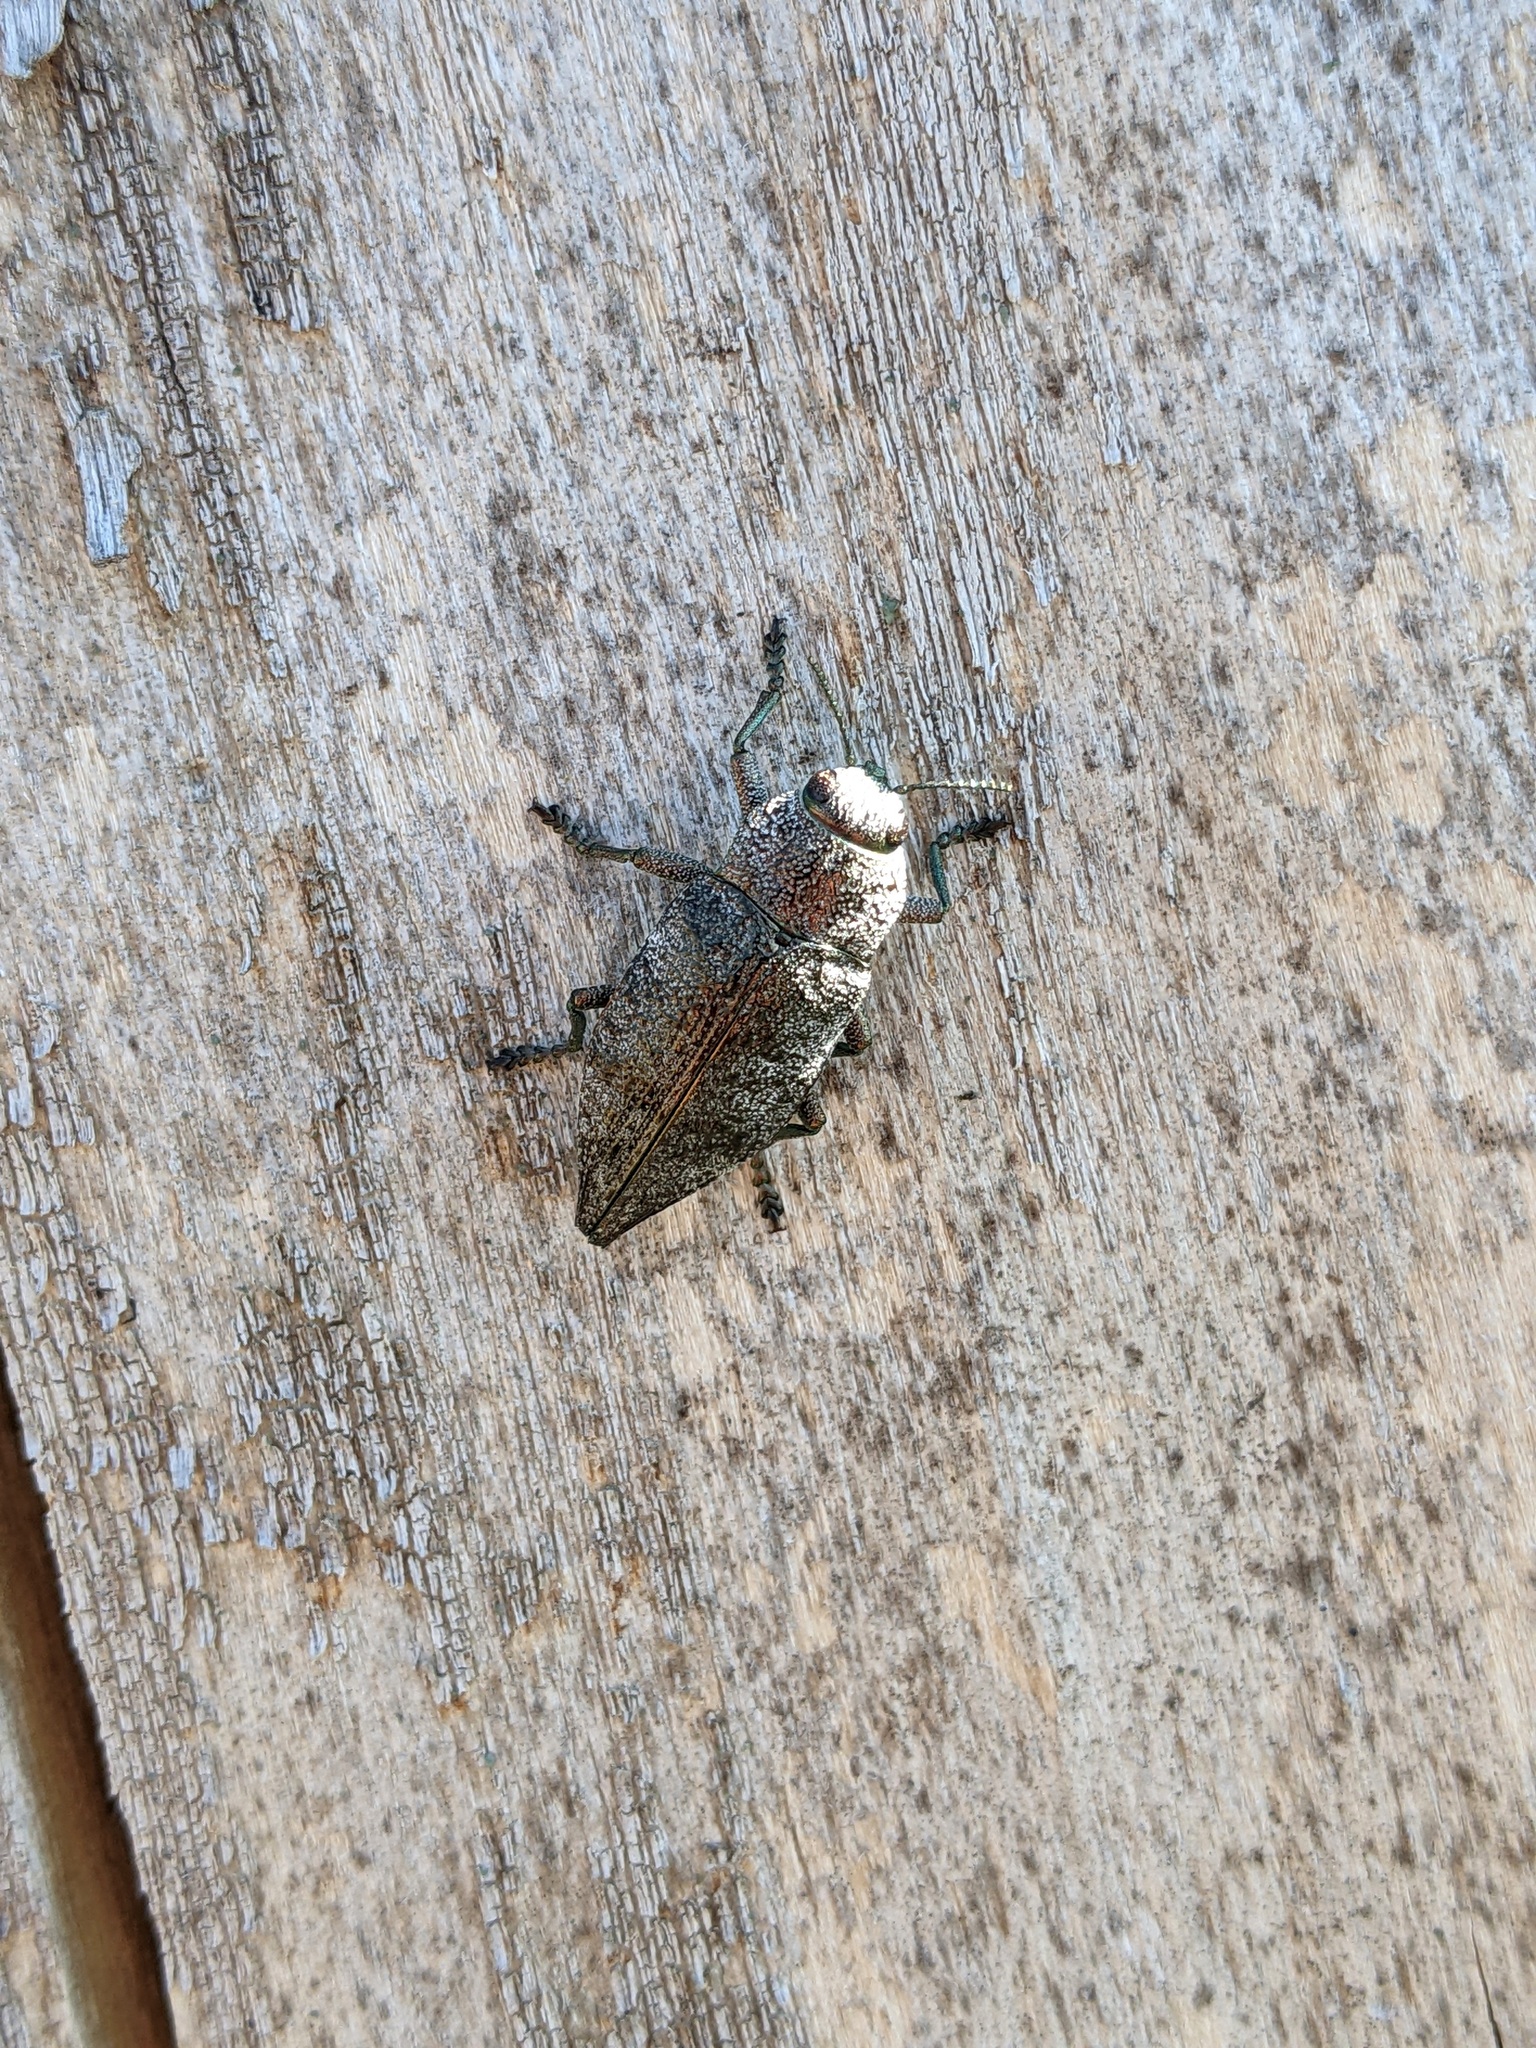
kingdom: Animalia
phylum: Arthropoda
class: Insecta
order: Coleoptera
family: Buprestidae
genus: Dicerca
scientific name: Dicerca aenea
